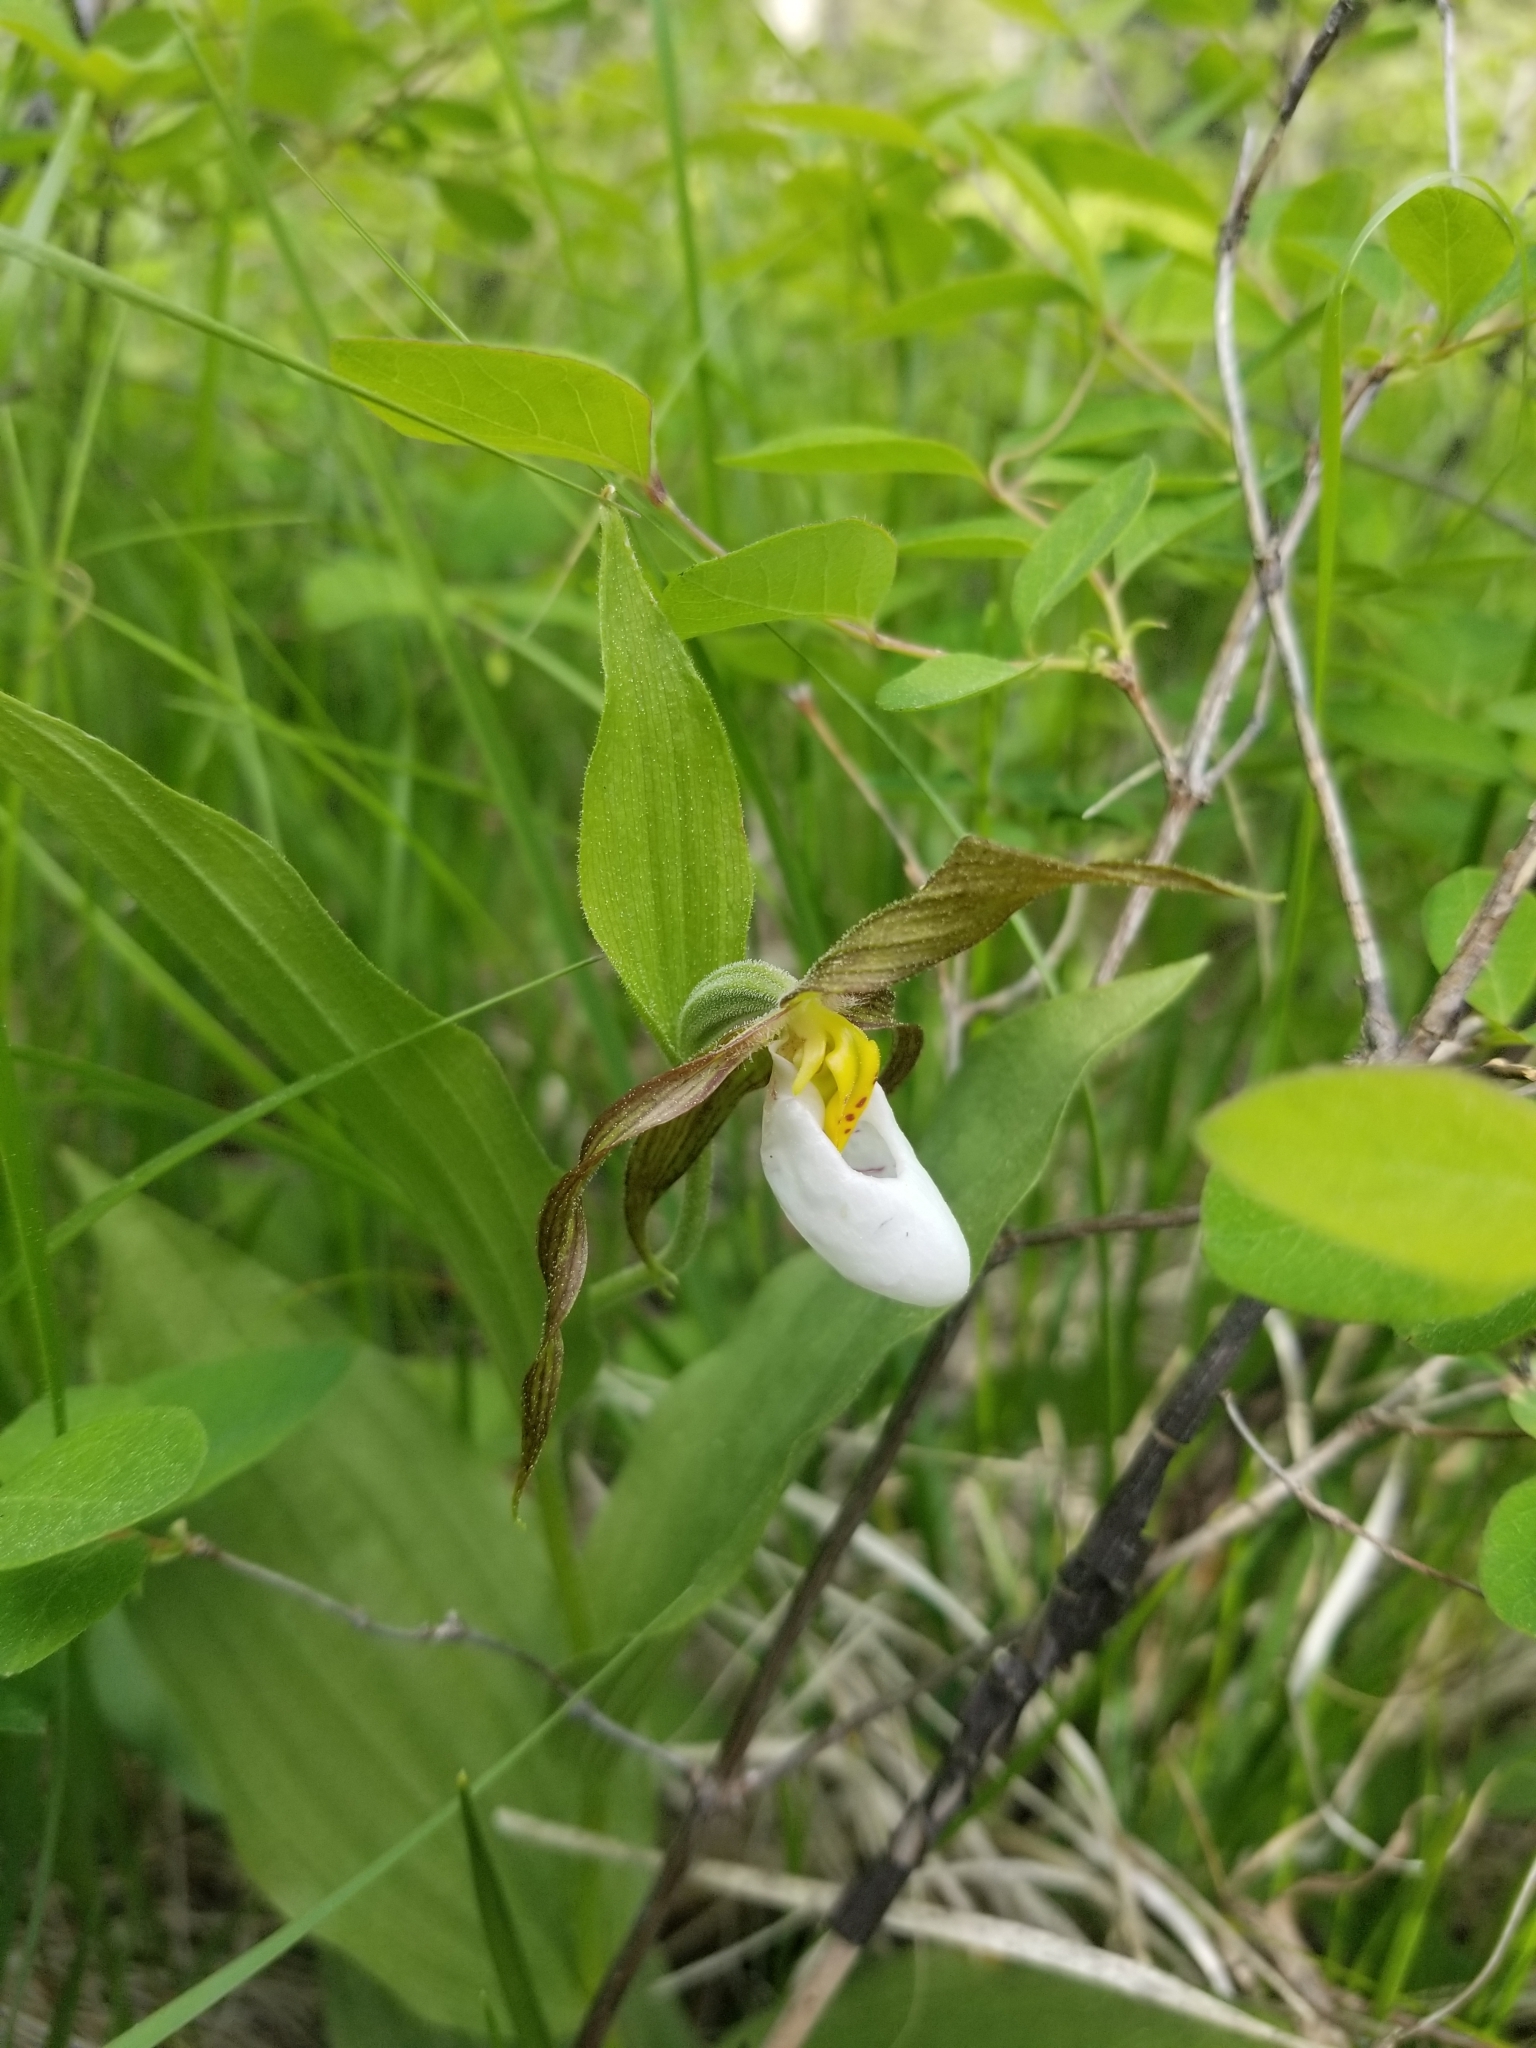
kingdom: Plantae
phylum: Tracheophyta
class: Liliopsida
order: Asparagales
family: Orchidaceae
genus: Cypripedium
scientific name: Cypripedium montanum
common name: Mountain lady's-slipper
